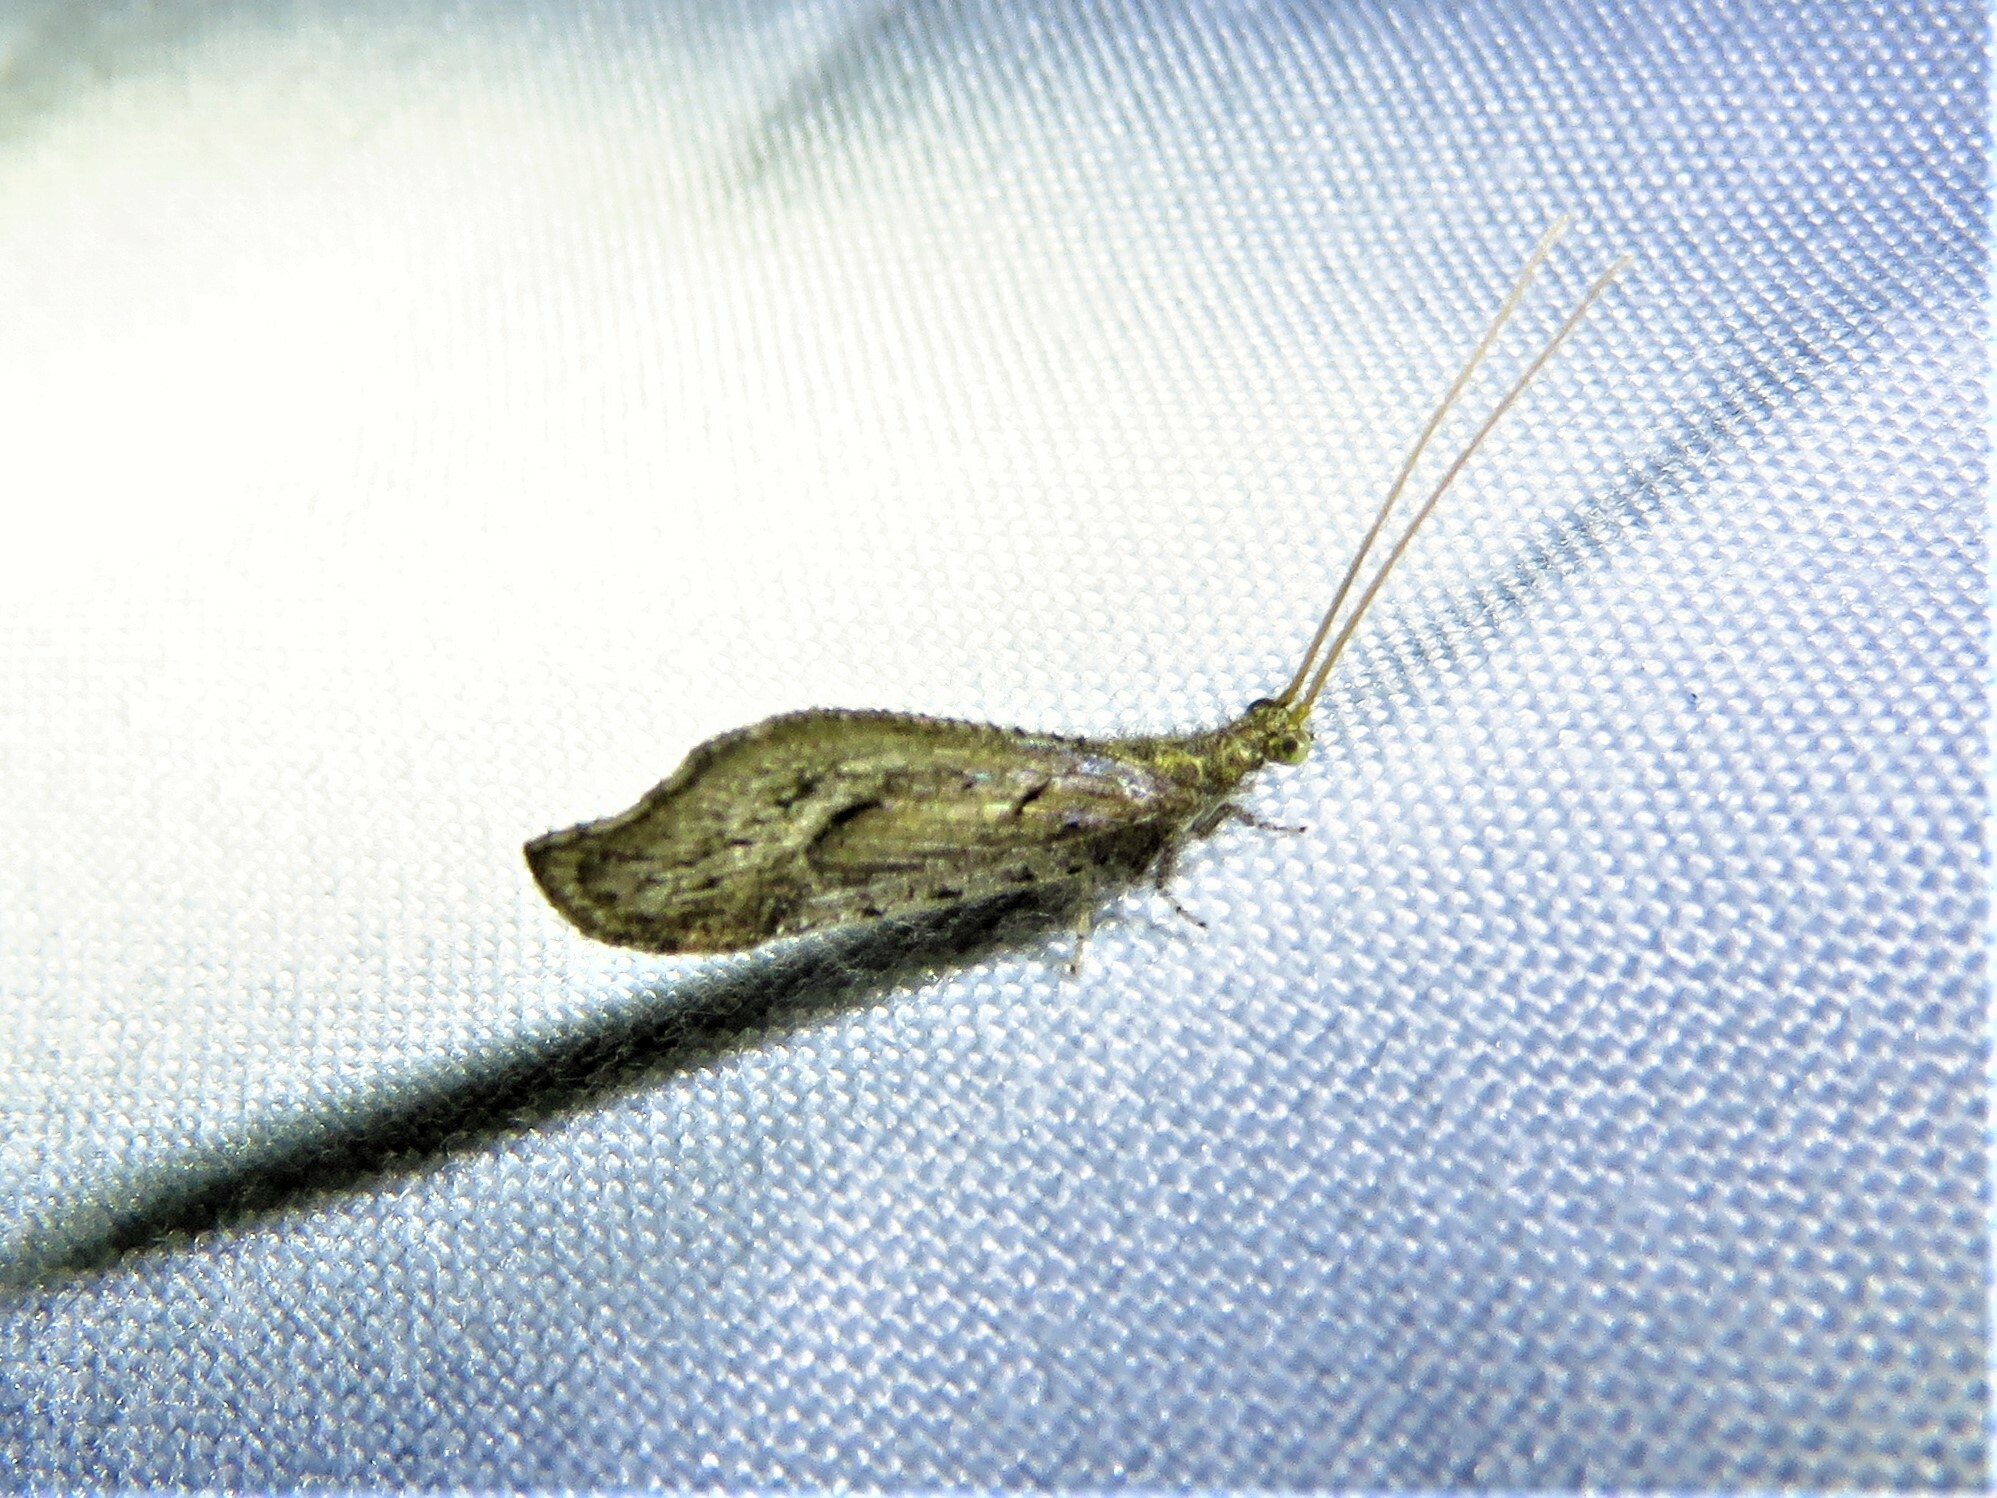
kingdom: Animalia
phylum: Arthropoda
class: Insecta
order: Neuroptera
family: Berothidae
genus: Lomamyia
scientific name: Lomamyia squamosa
